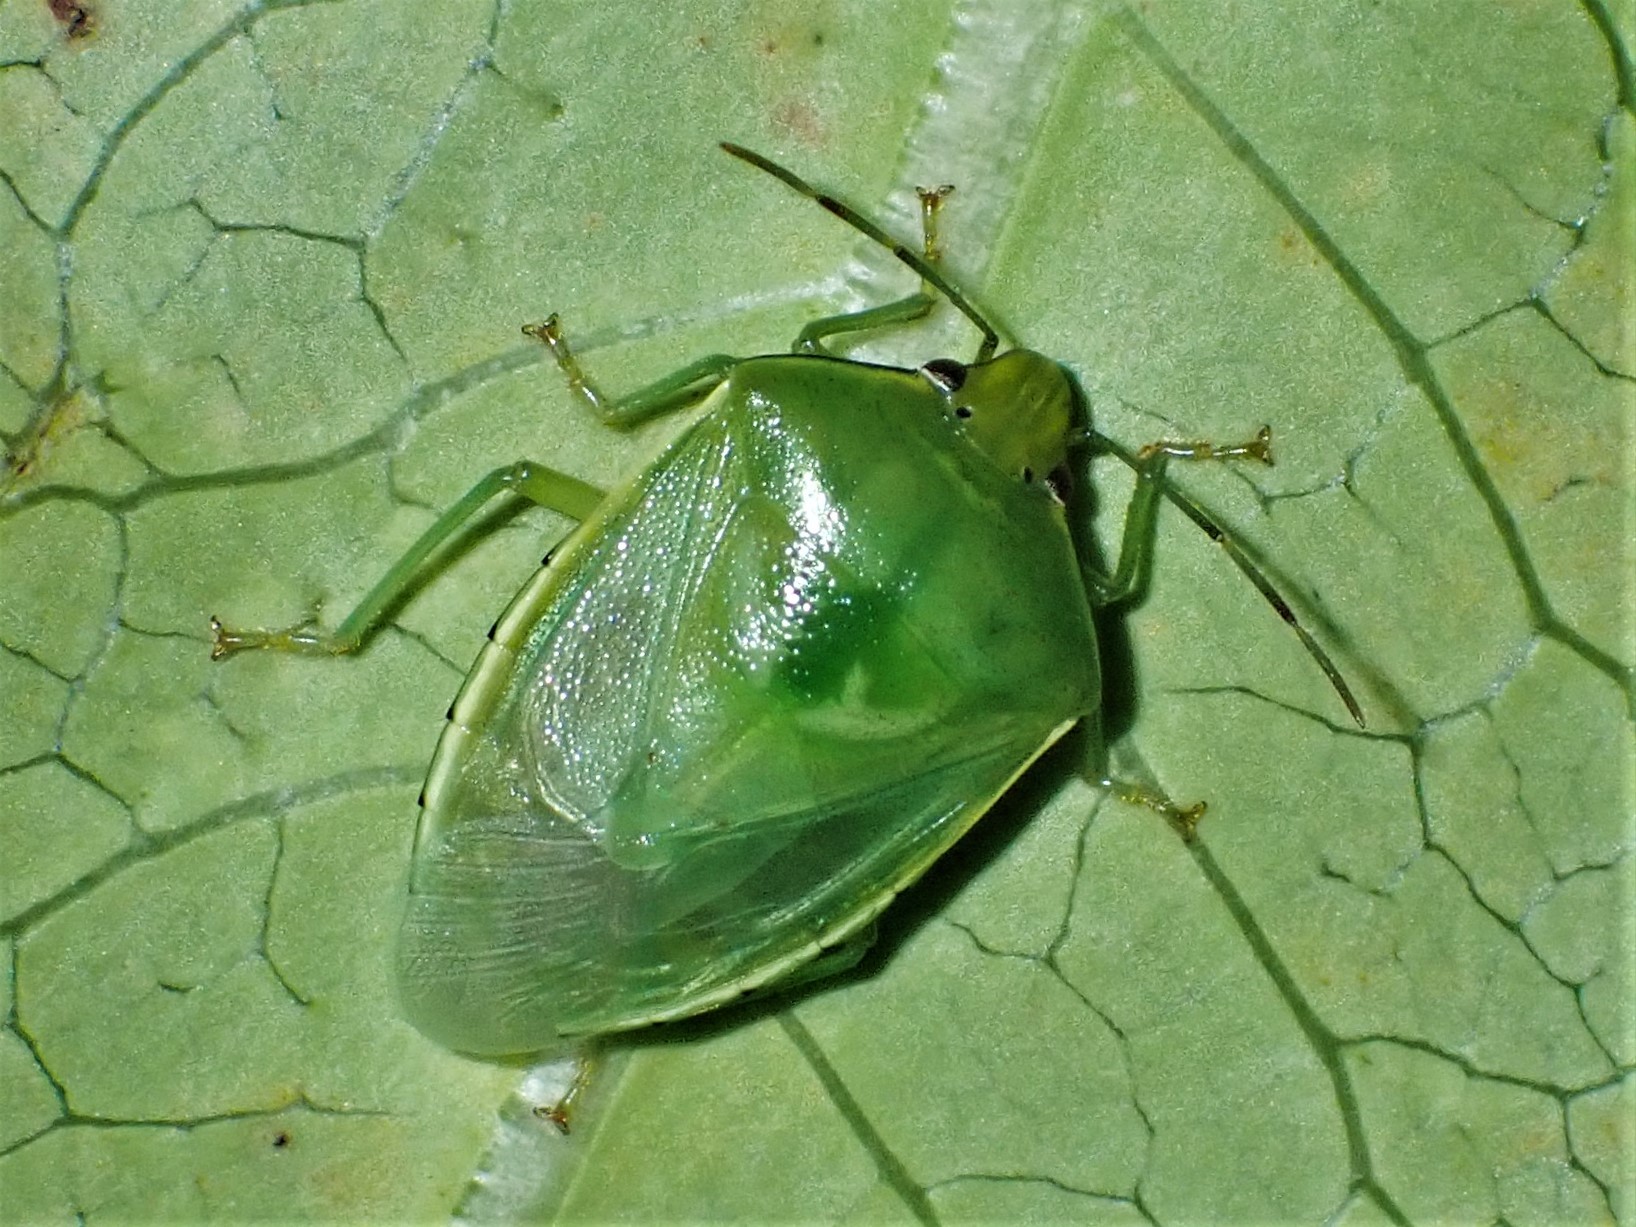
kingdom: Animalia
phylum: Arthropoda
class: Insecta
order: Hemiptera
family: Pentatomidae
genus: Glaucias
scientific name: Glaucias amyota
